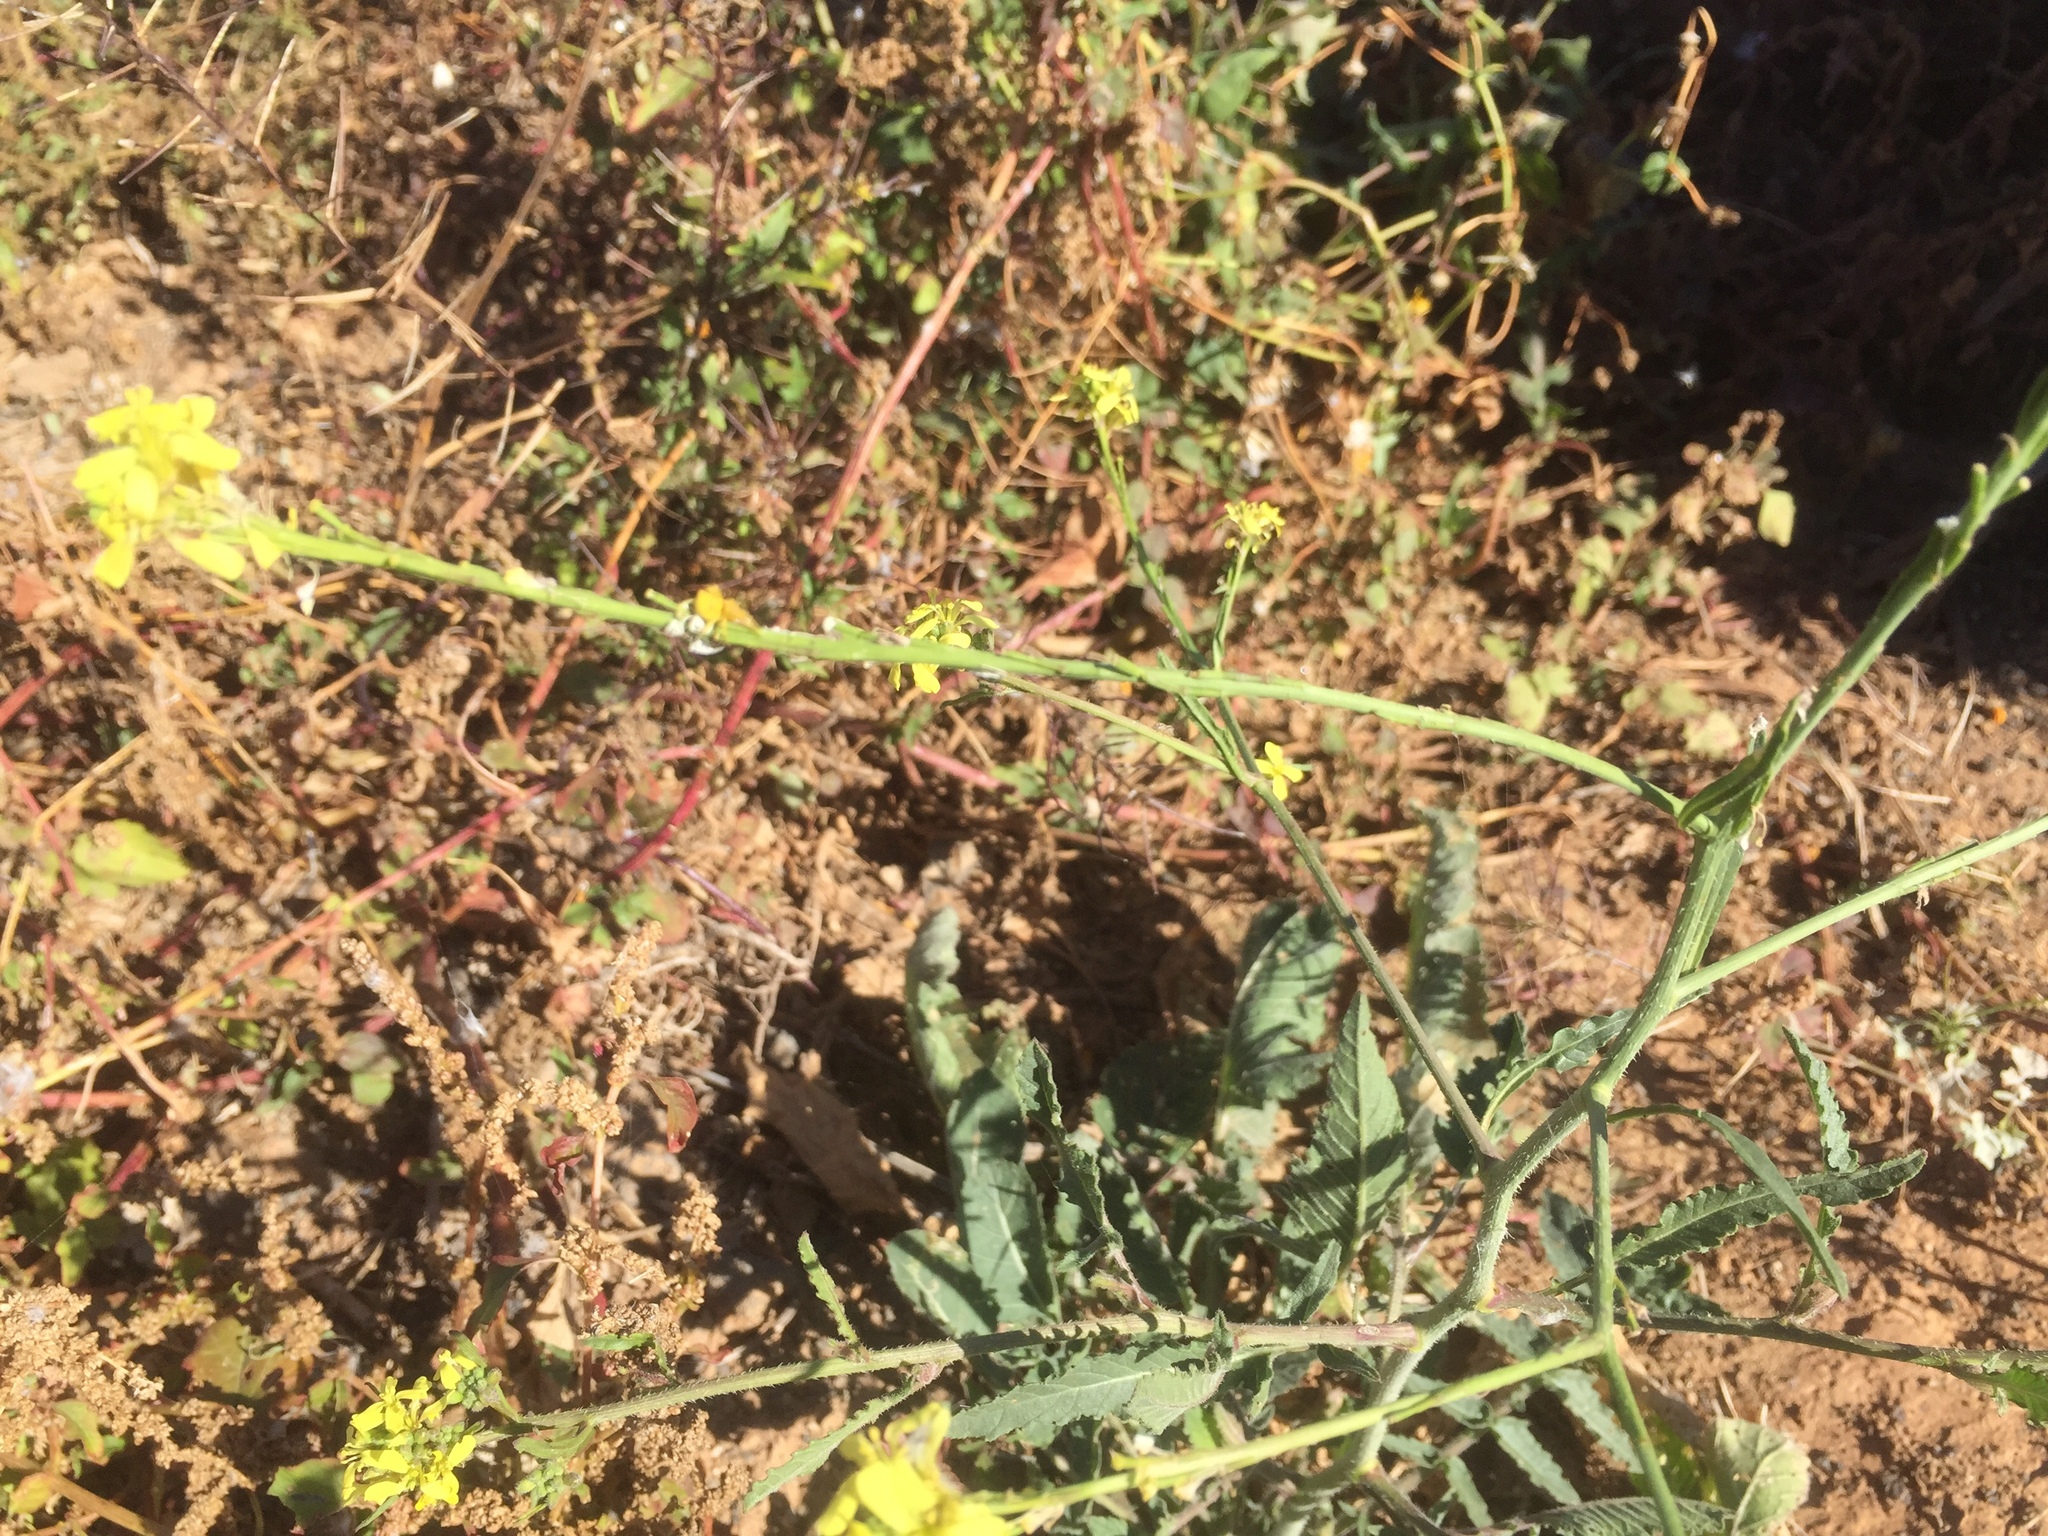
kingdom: Plantae
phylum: Tracheophyta
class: Magnoliopsida
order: Brassicales
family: Brassicaceae
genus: Hirschfeldia
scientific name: Hirschfeldia incana
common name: Hoary mustard
